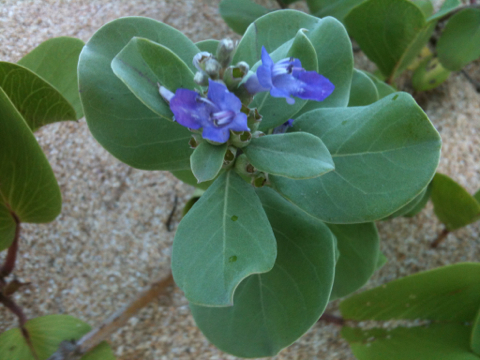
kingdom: Plantae
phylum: Tracheophyta
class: Magnoliopsida
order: Lamiales
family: Lamiaceae
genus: Vitex
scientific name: Vitex rotundifolia
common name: Beach vitex
